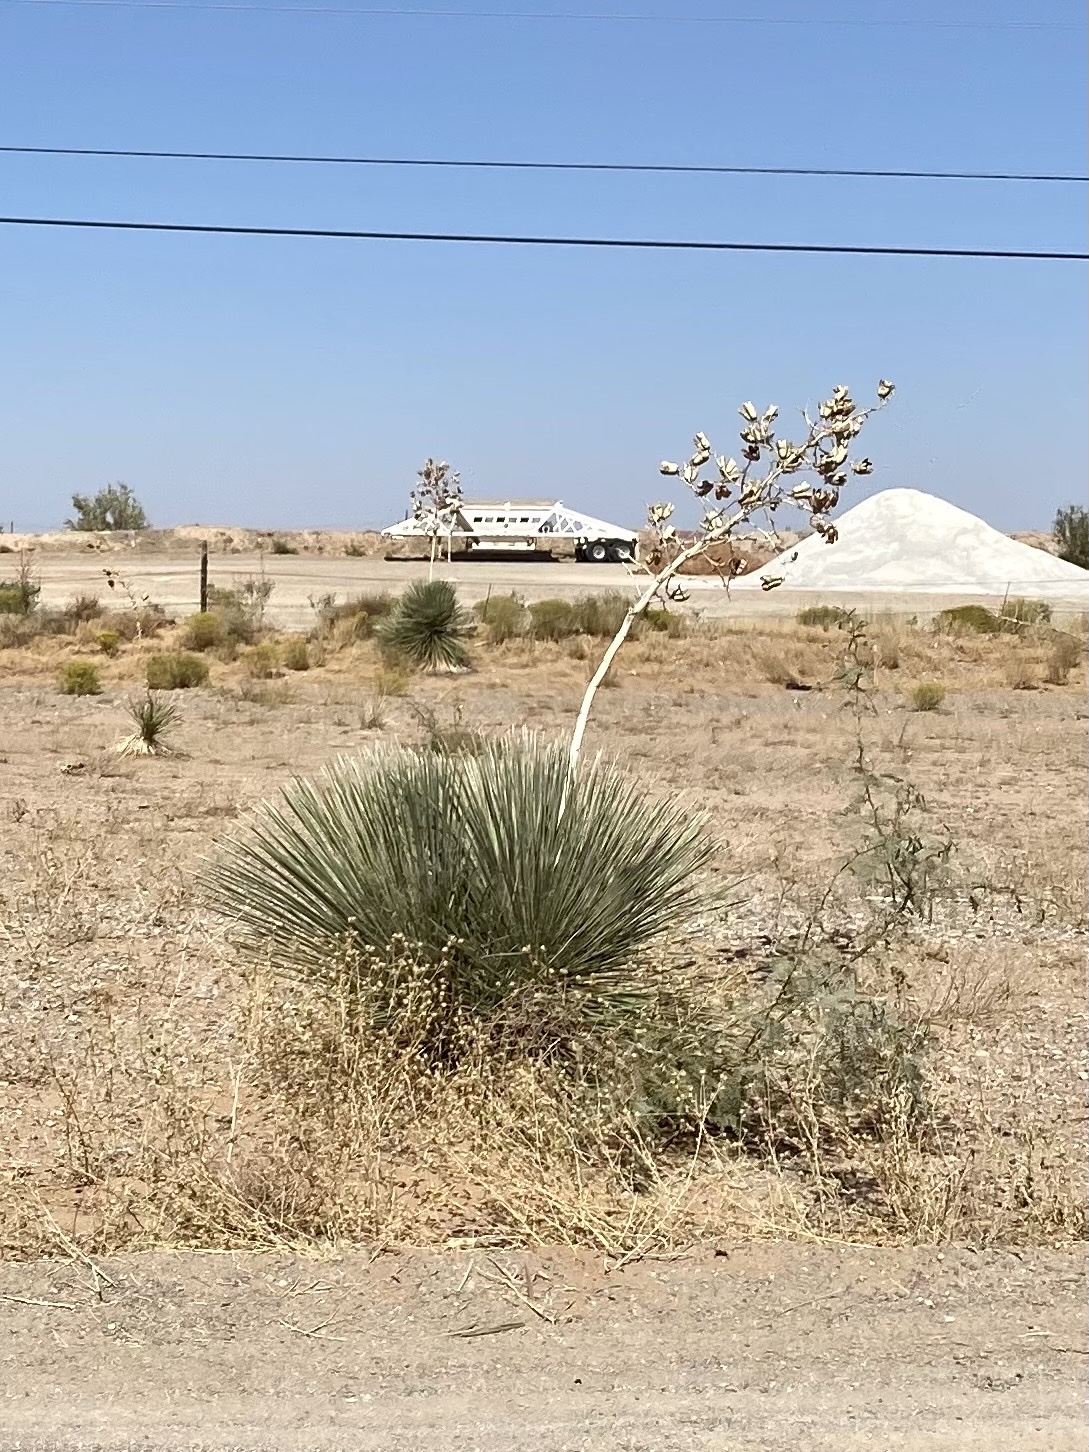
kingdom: Plantae
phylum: Tracheophyta
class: Liliopsida
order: Asparagales
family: Asparagaceae
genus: Yucca
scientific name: Yucca elata
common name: Palmella
